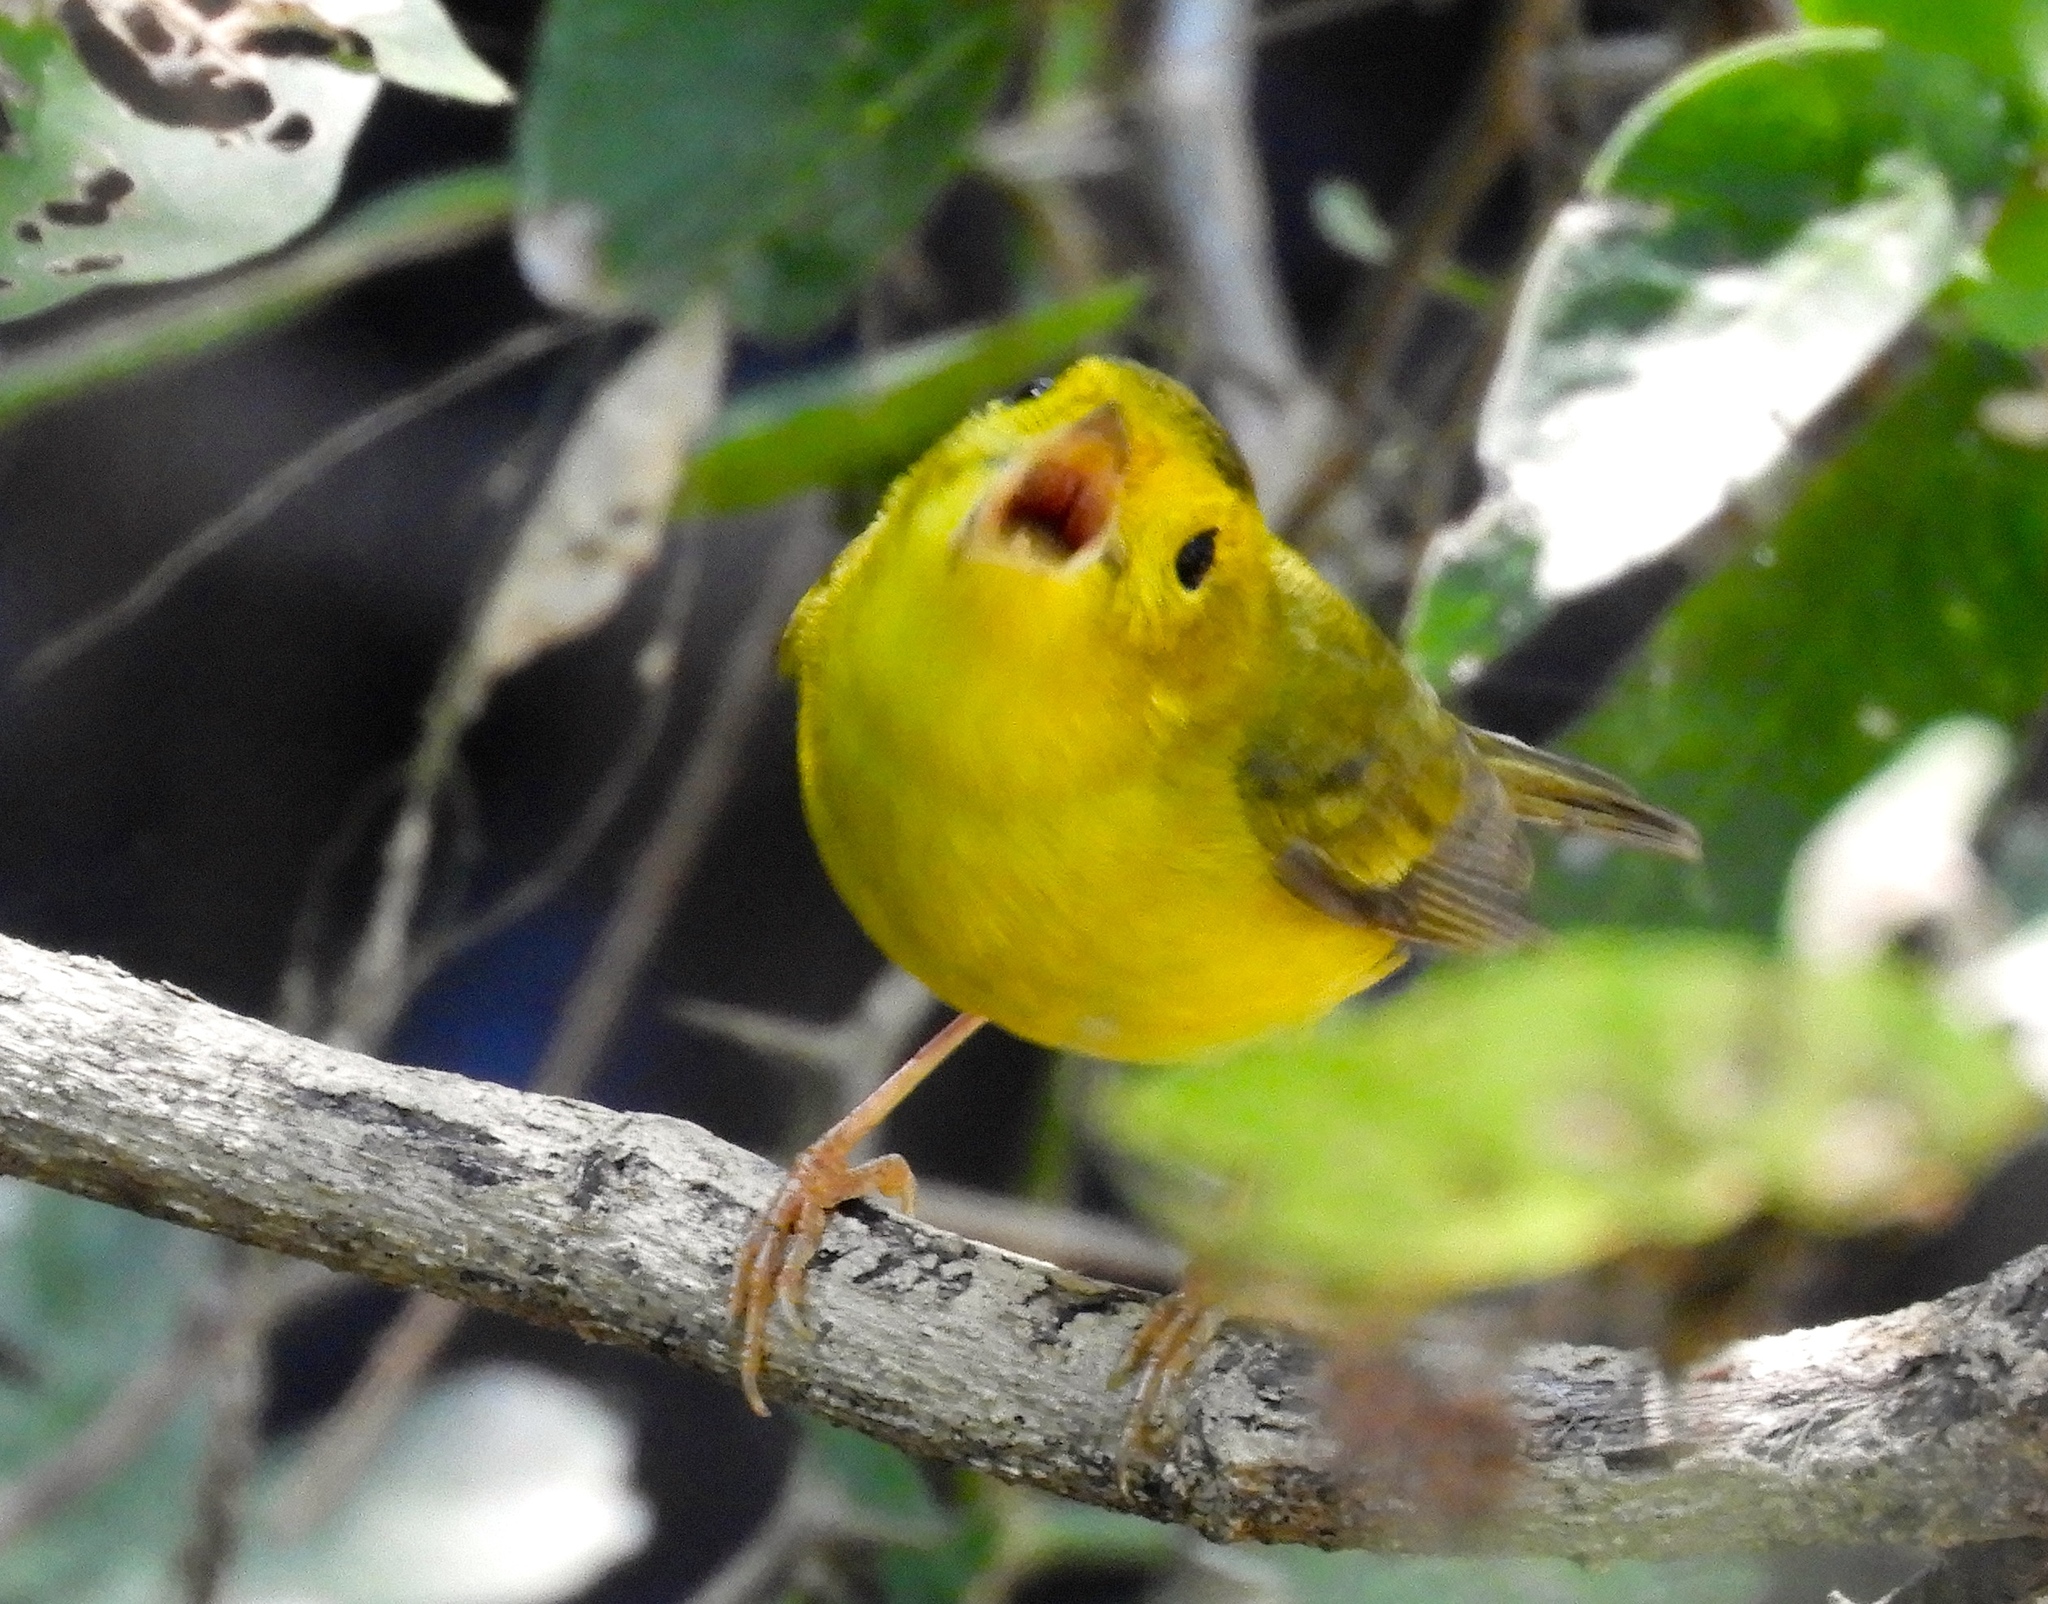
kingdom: Animalia
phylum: Chordata
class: Aves
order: Passeriformes
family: Parulidae
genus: Cardellina
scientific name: Cardellina pusilla
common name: Wilson's warbler
